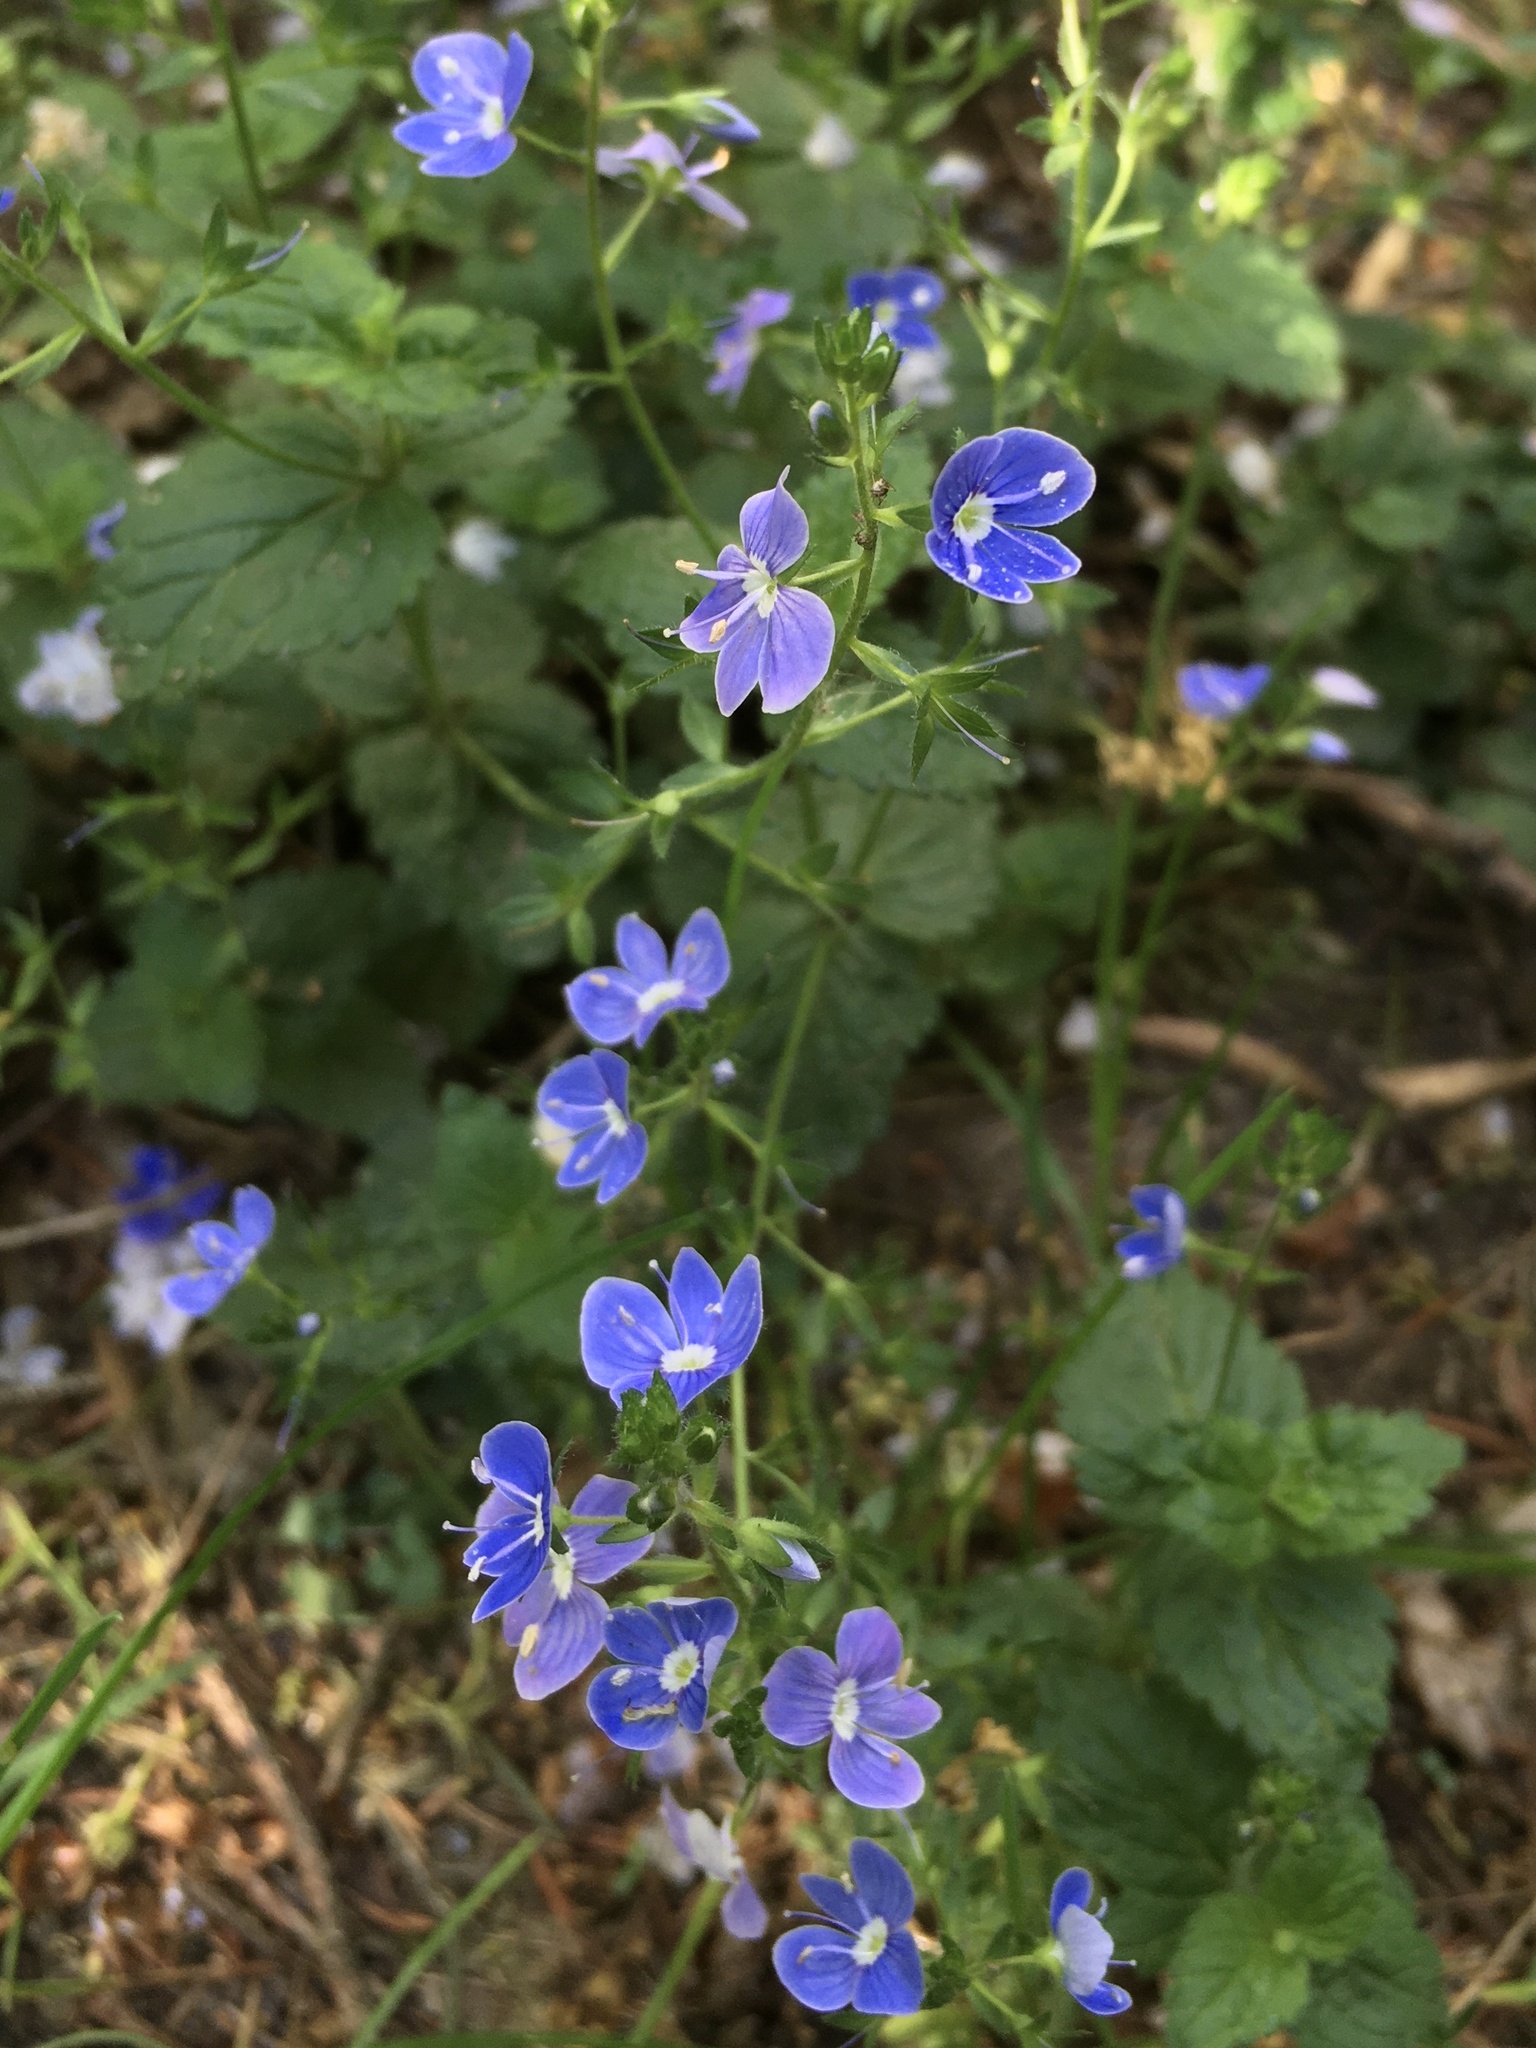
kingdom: Plantae
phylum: Tracheophyta
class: Magnoliopsida
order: Lamiales
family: Plantaginaceae
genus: Veronica
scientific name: Veronica chamaedrys
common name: Germander speedwell
